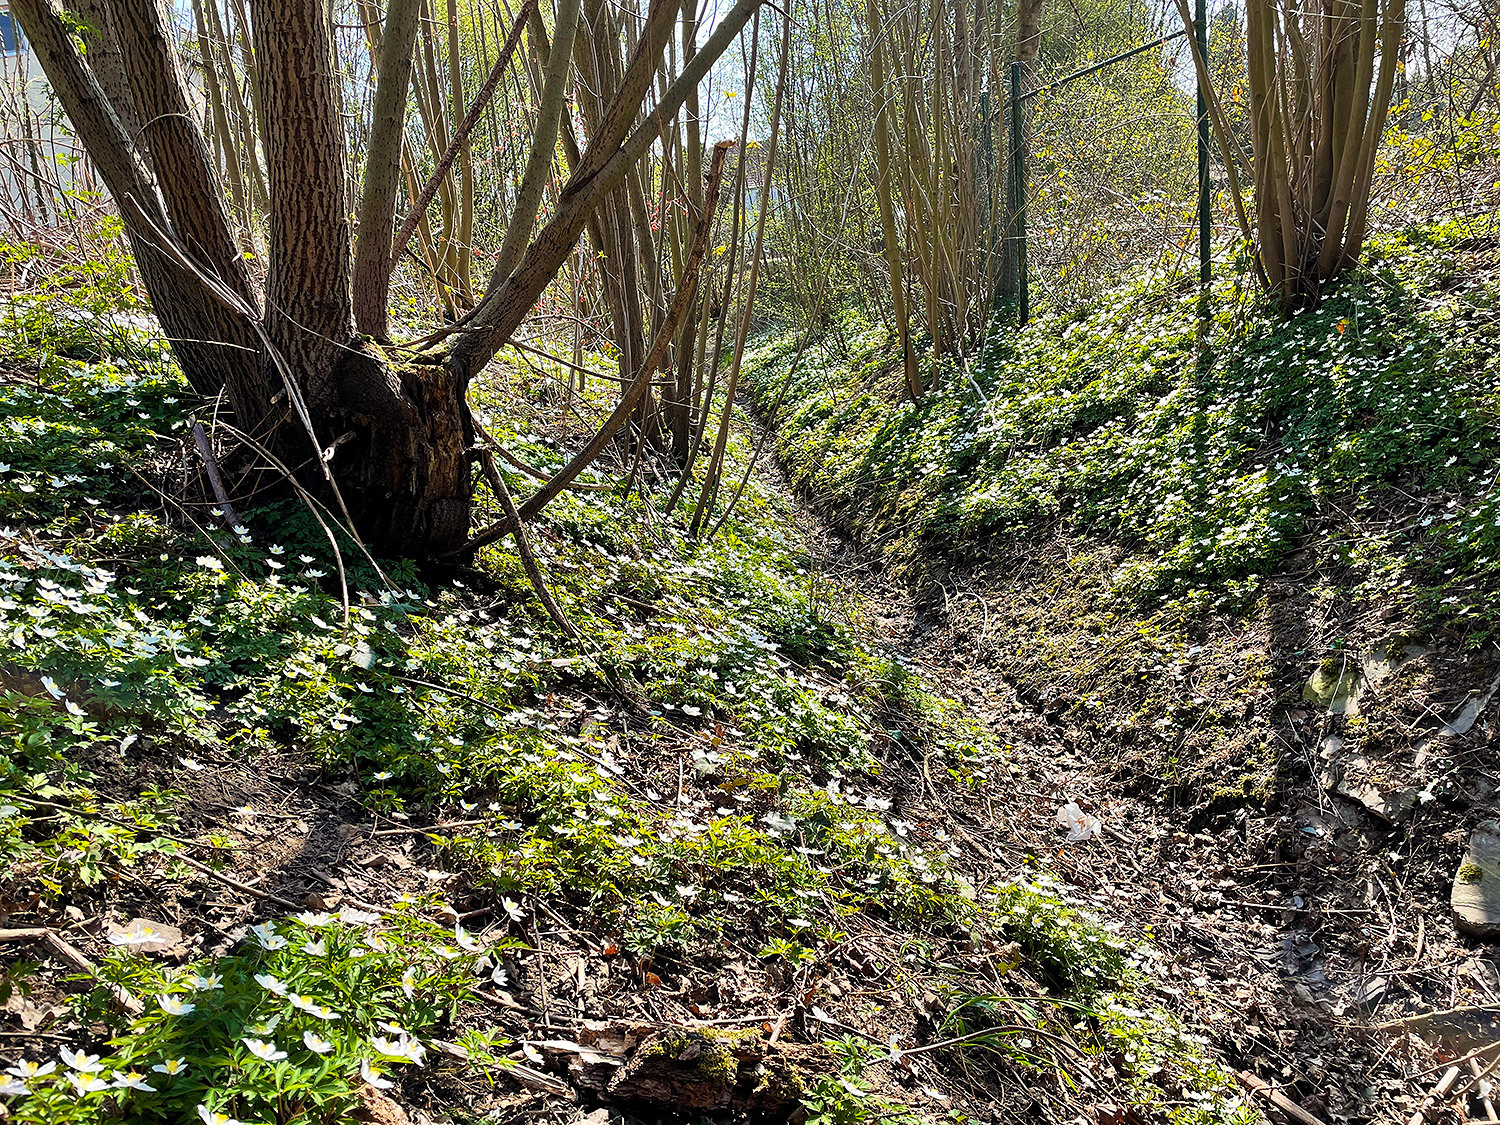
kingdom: Plantae
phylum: Tracheophyta
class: Magnoliopsida
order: Ranunculales
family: Ranunculaceae
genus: Anemone
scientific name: Anemone nemorosa
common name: Wood anemone
